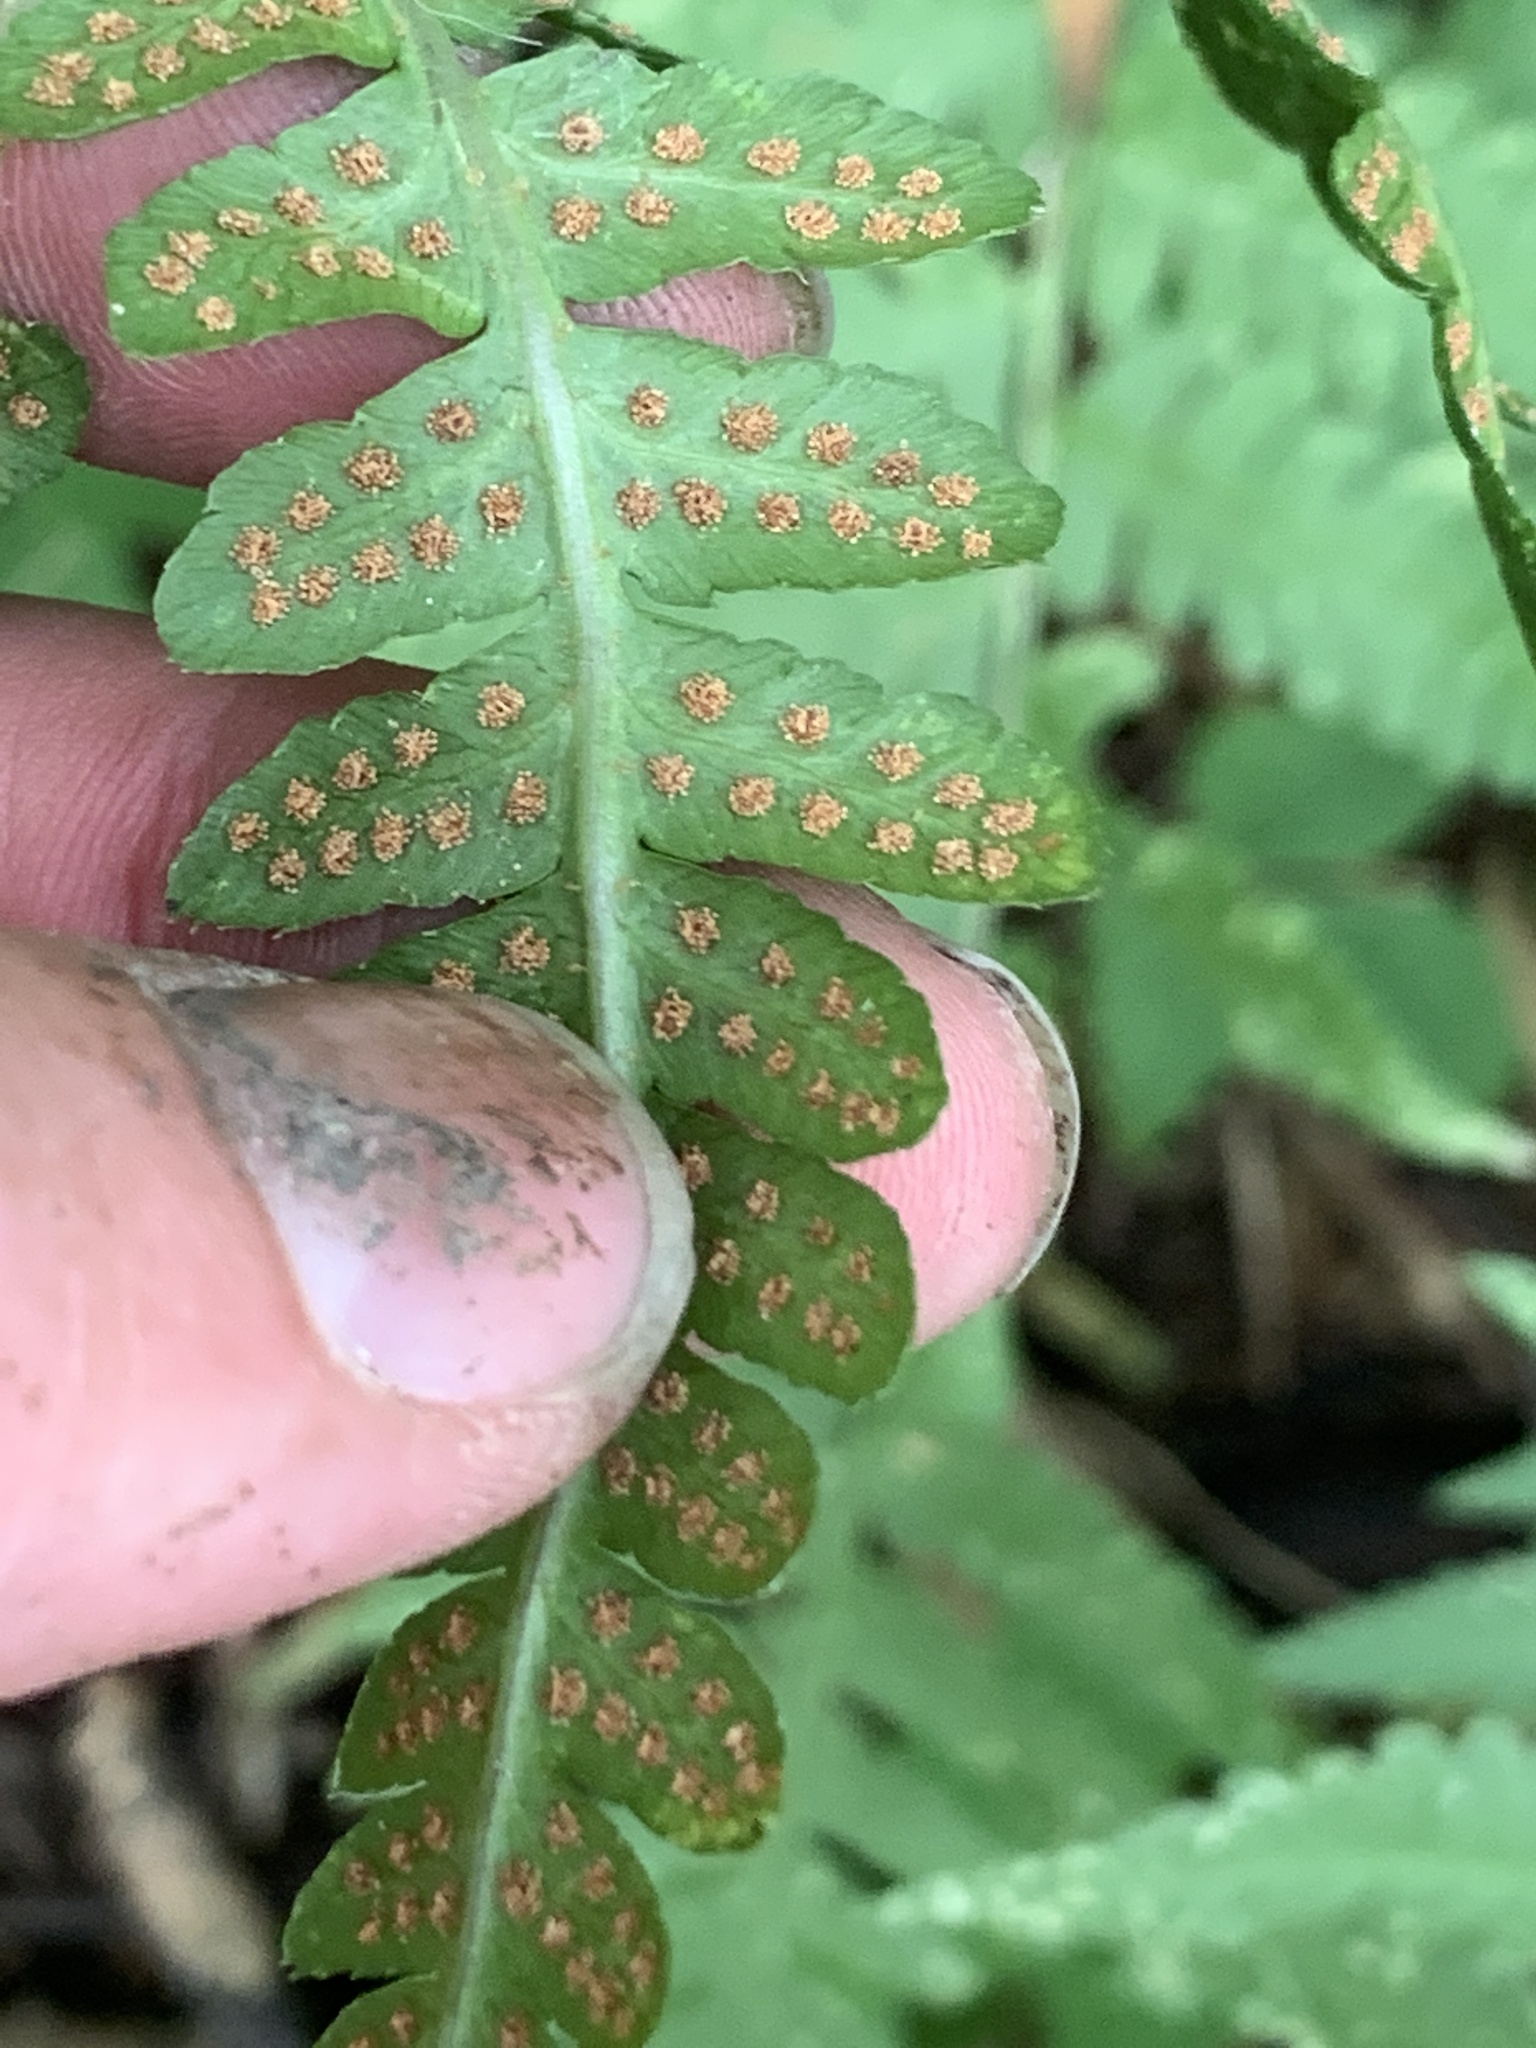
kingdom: Plantae
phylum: Tracheophyta
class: Polypodiopsida
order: Polypodiales
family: Dryopteridaceae
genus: Dryopteris
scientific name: Dryopteris cristata
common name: Crested wood fern
